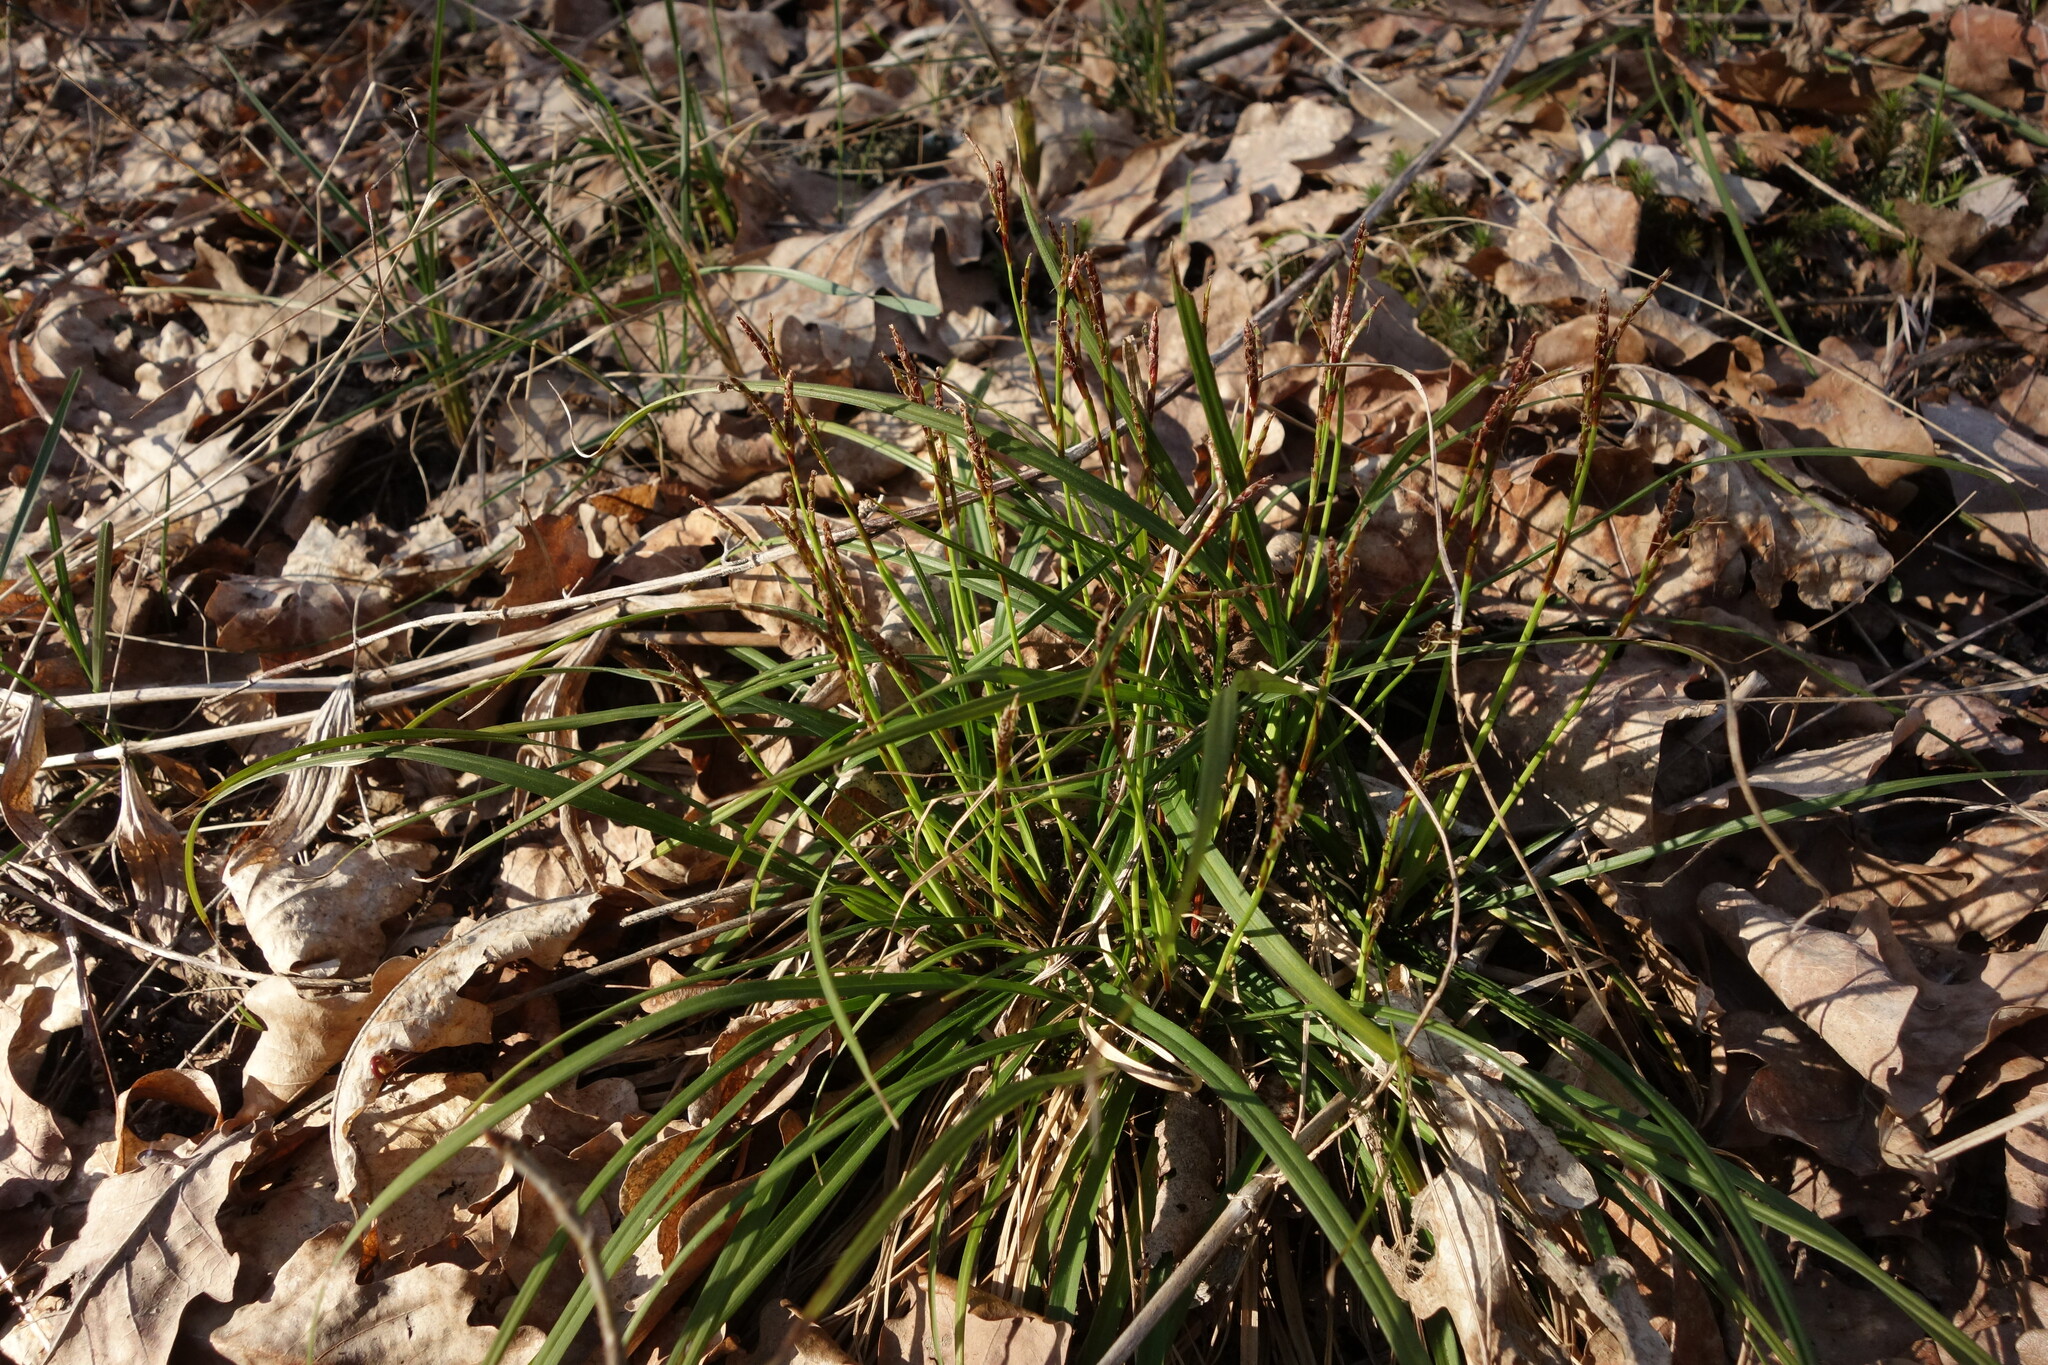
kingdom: Plantae
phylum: Tracheophyta
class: Liliopsida
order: Poales
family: Cyperaceae
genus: Carex
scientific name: Carex digitata
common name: Fingered sedge
